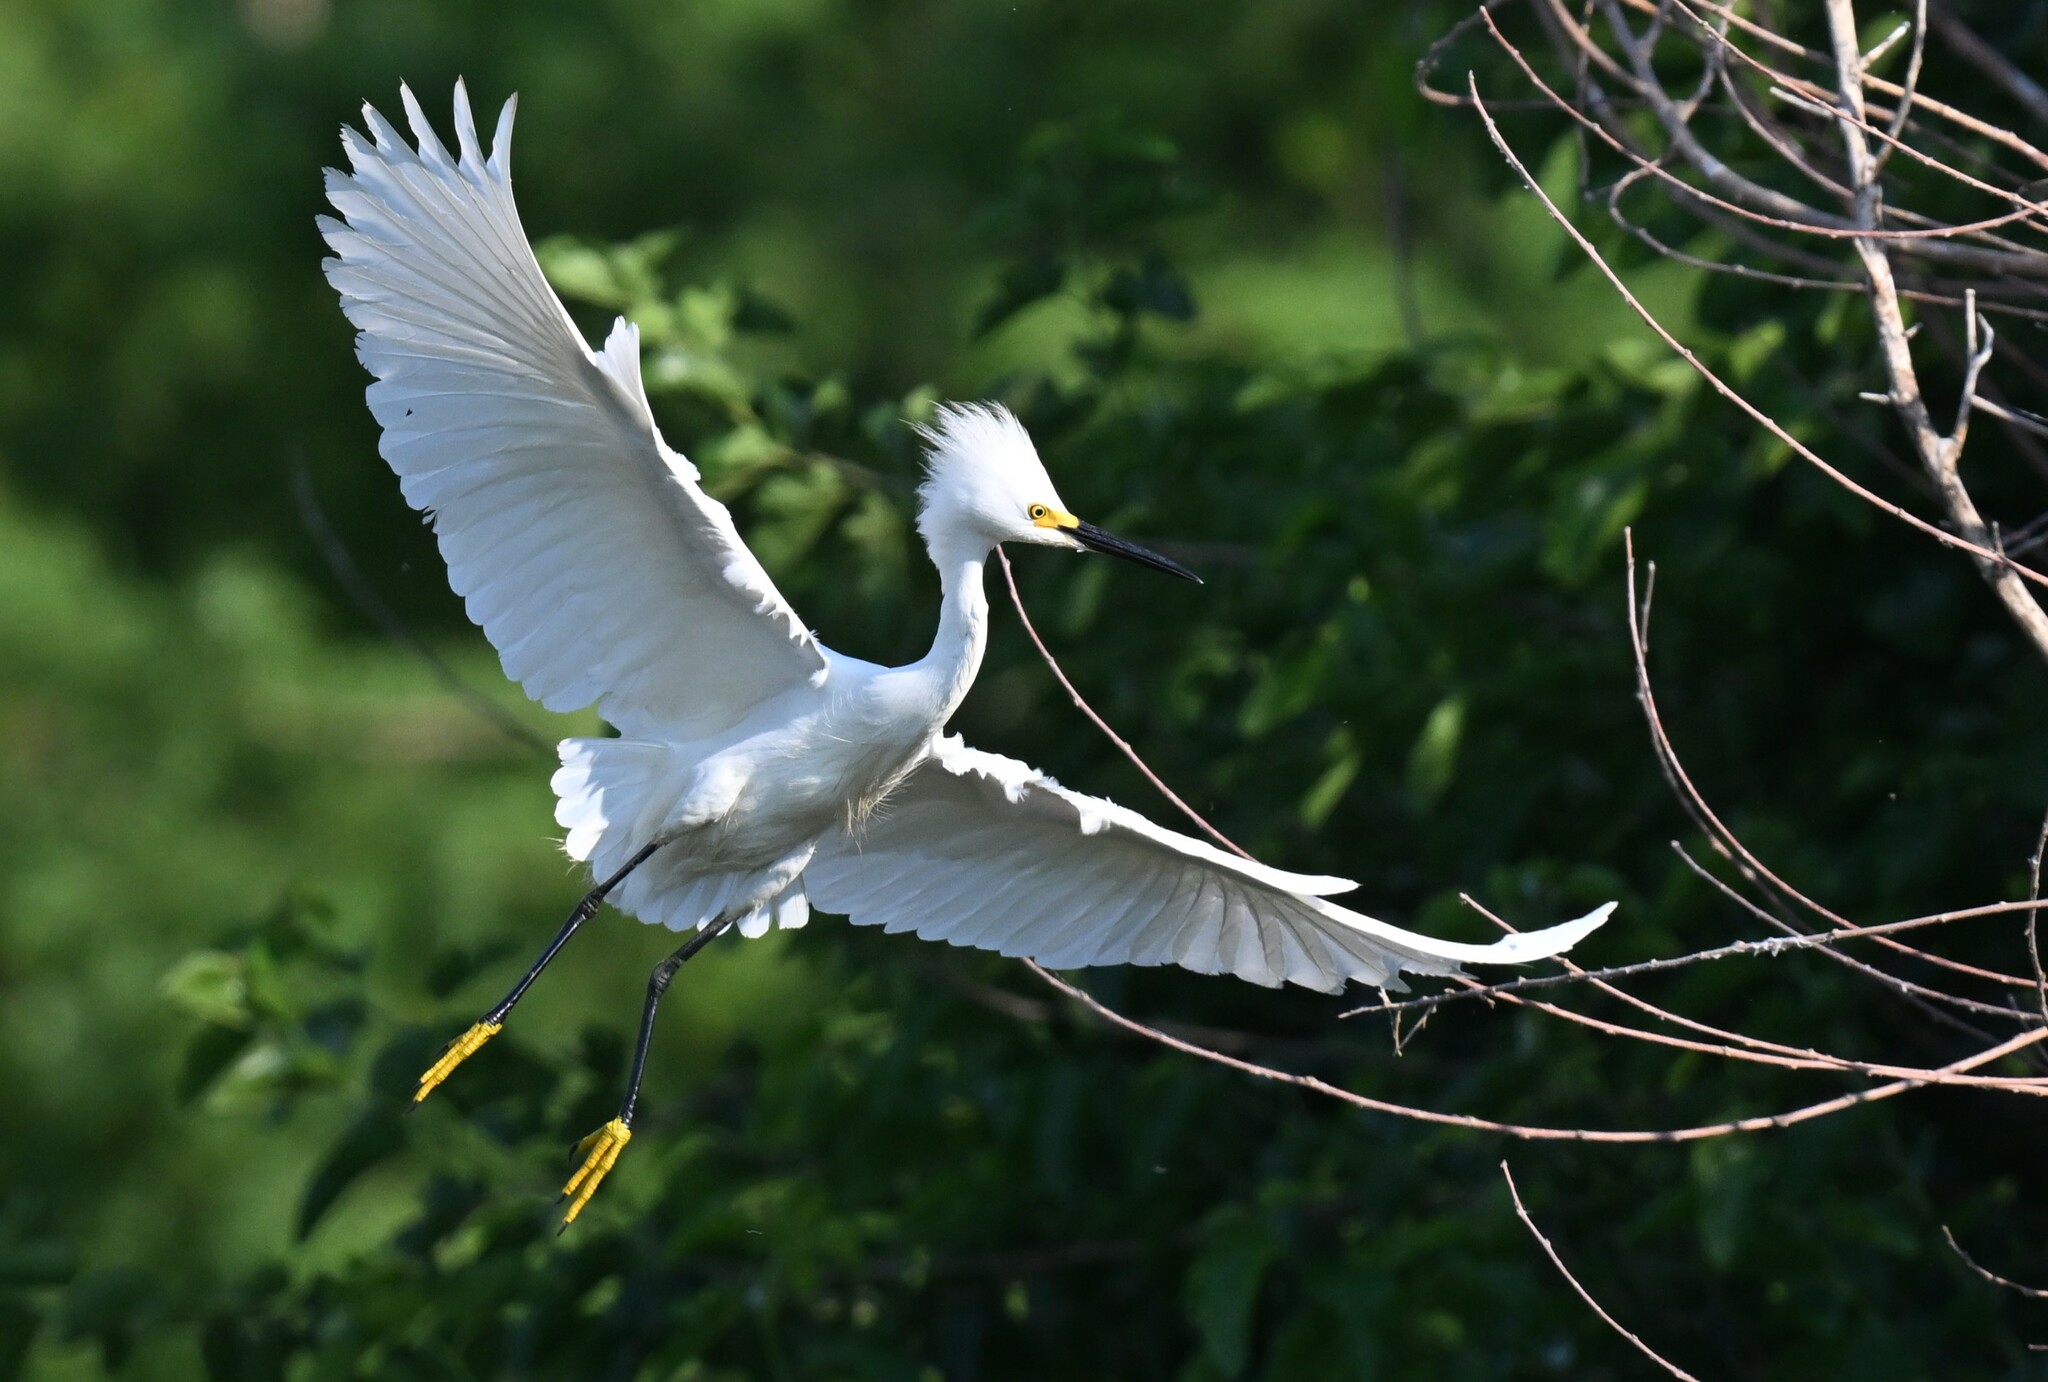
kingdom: Animalia
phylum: Chordata
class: Aves
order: Pelecaniformes
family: Ardeidae
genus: Egretta
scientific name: Egretta thula
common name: Snowy egret
